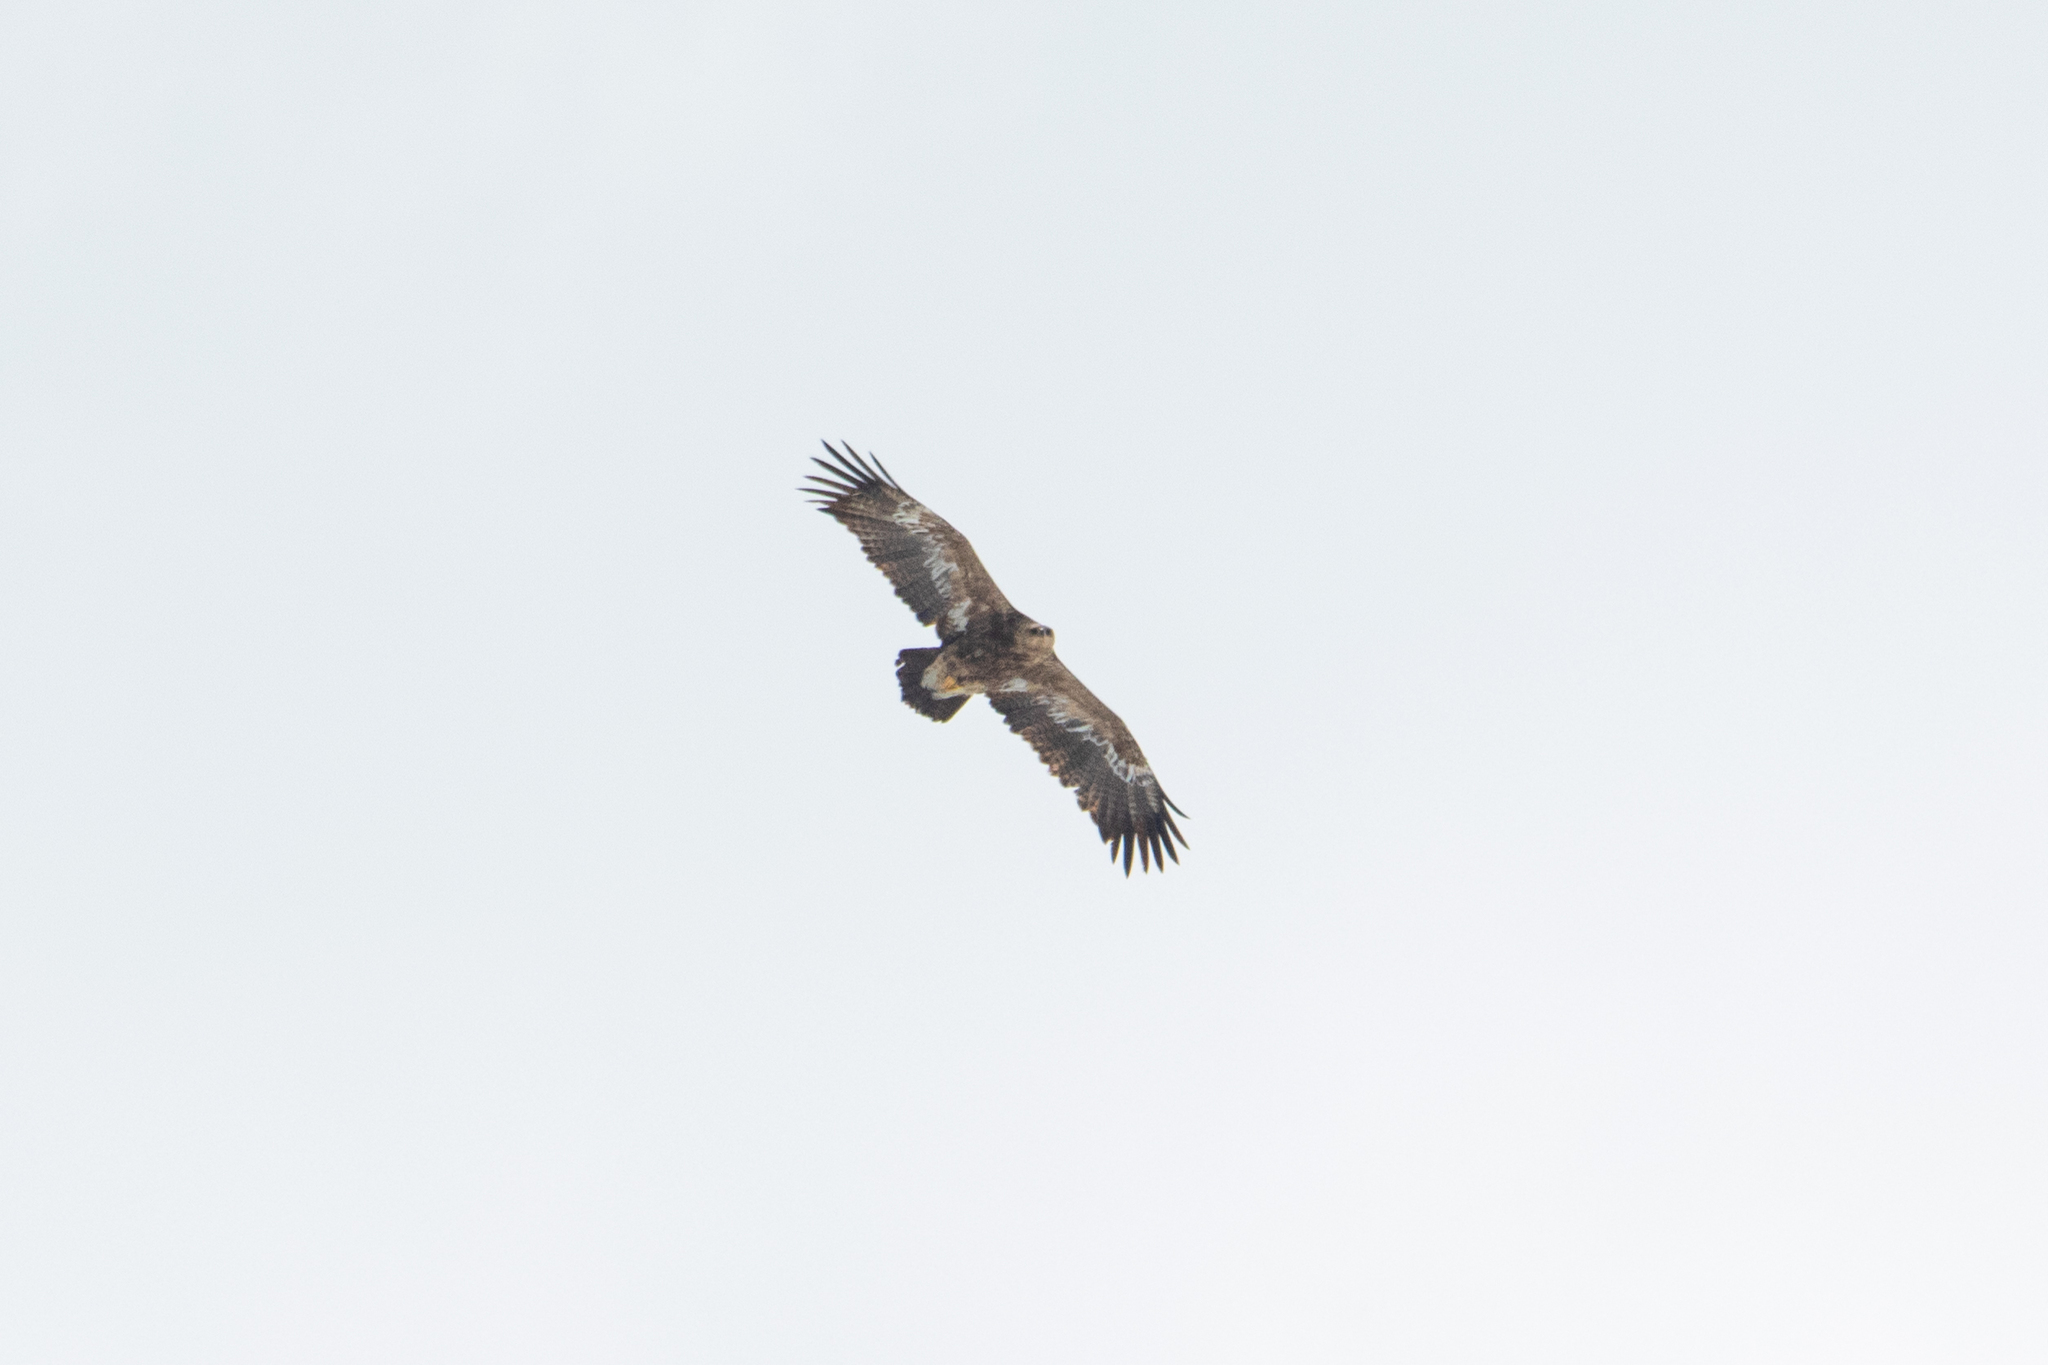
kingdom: Animalia
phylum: Chordata
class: Aves
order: Accipitriformes
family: Accipitridae
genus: Aquila
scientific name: Aquila nipalensis
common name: Steppe eagle
